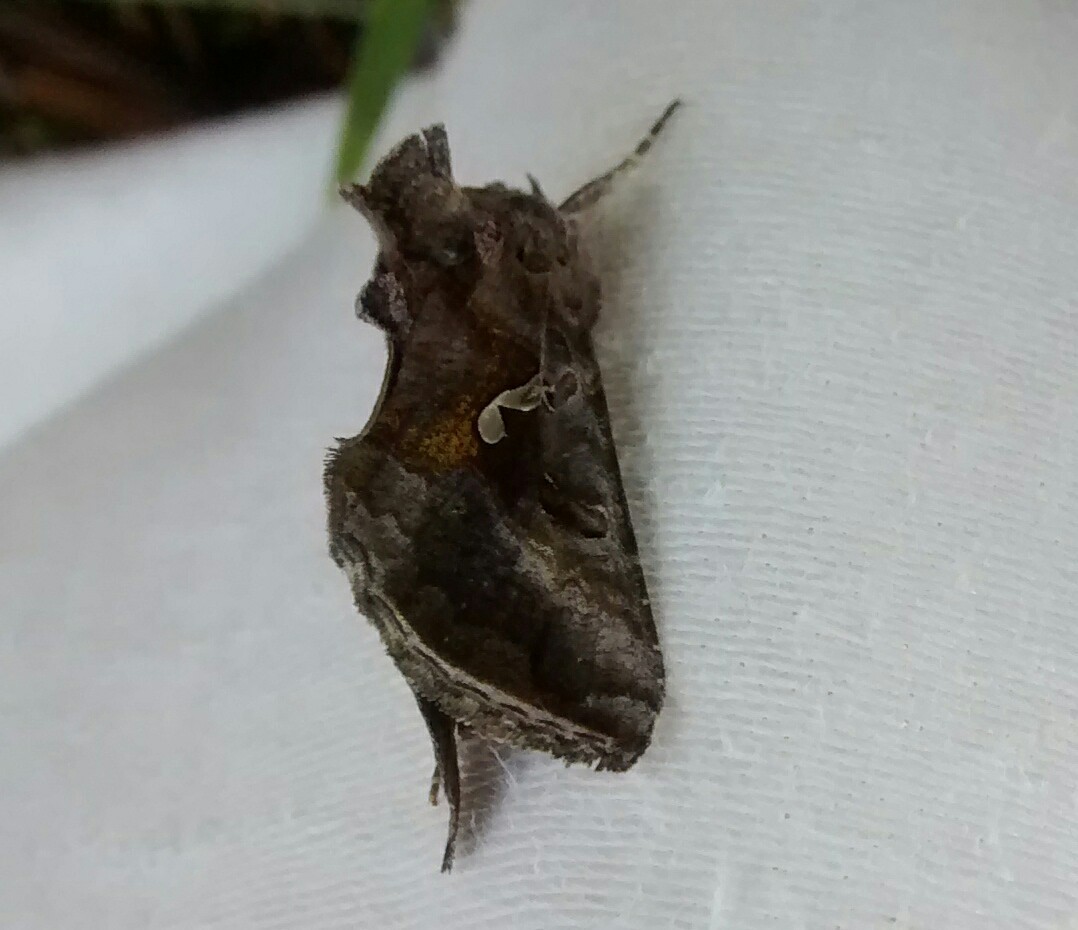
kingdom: Animalia
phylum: Arthropoda
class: Insecta
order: Lepidoptera
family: Noctuidae
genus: Autographa
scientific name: Autographa precationis
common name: Common looper moth
